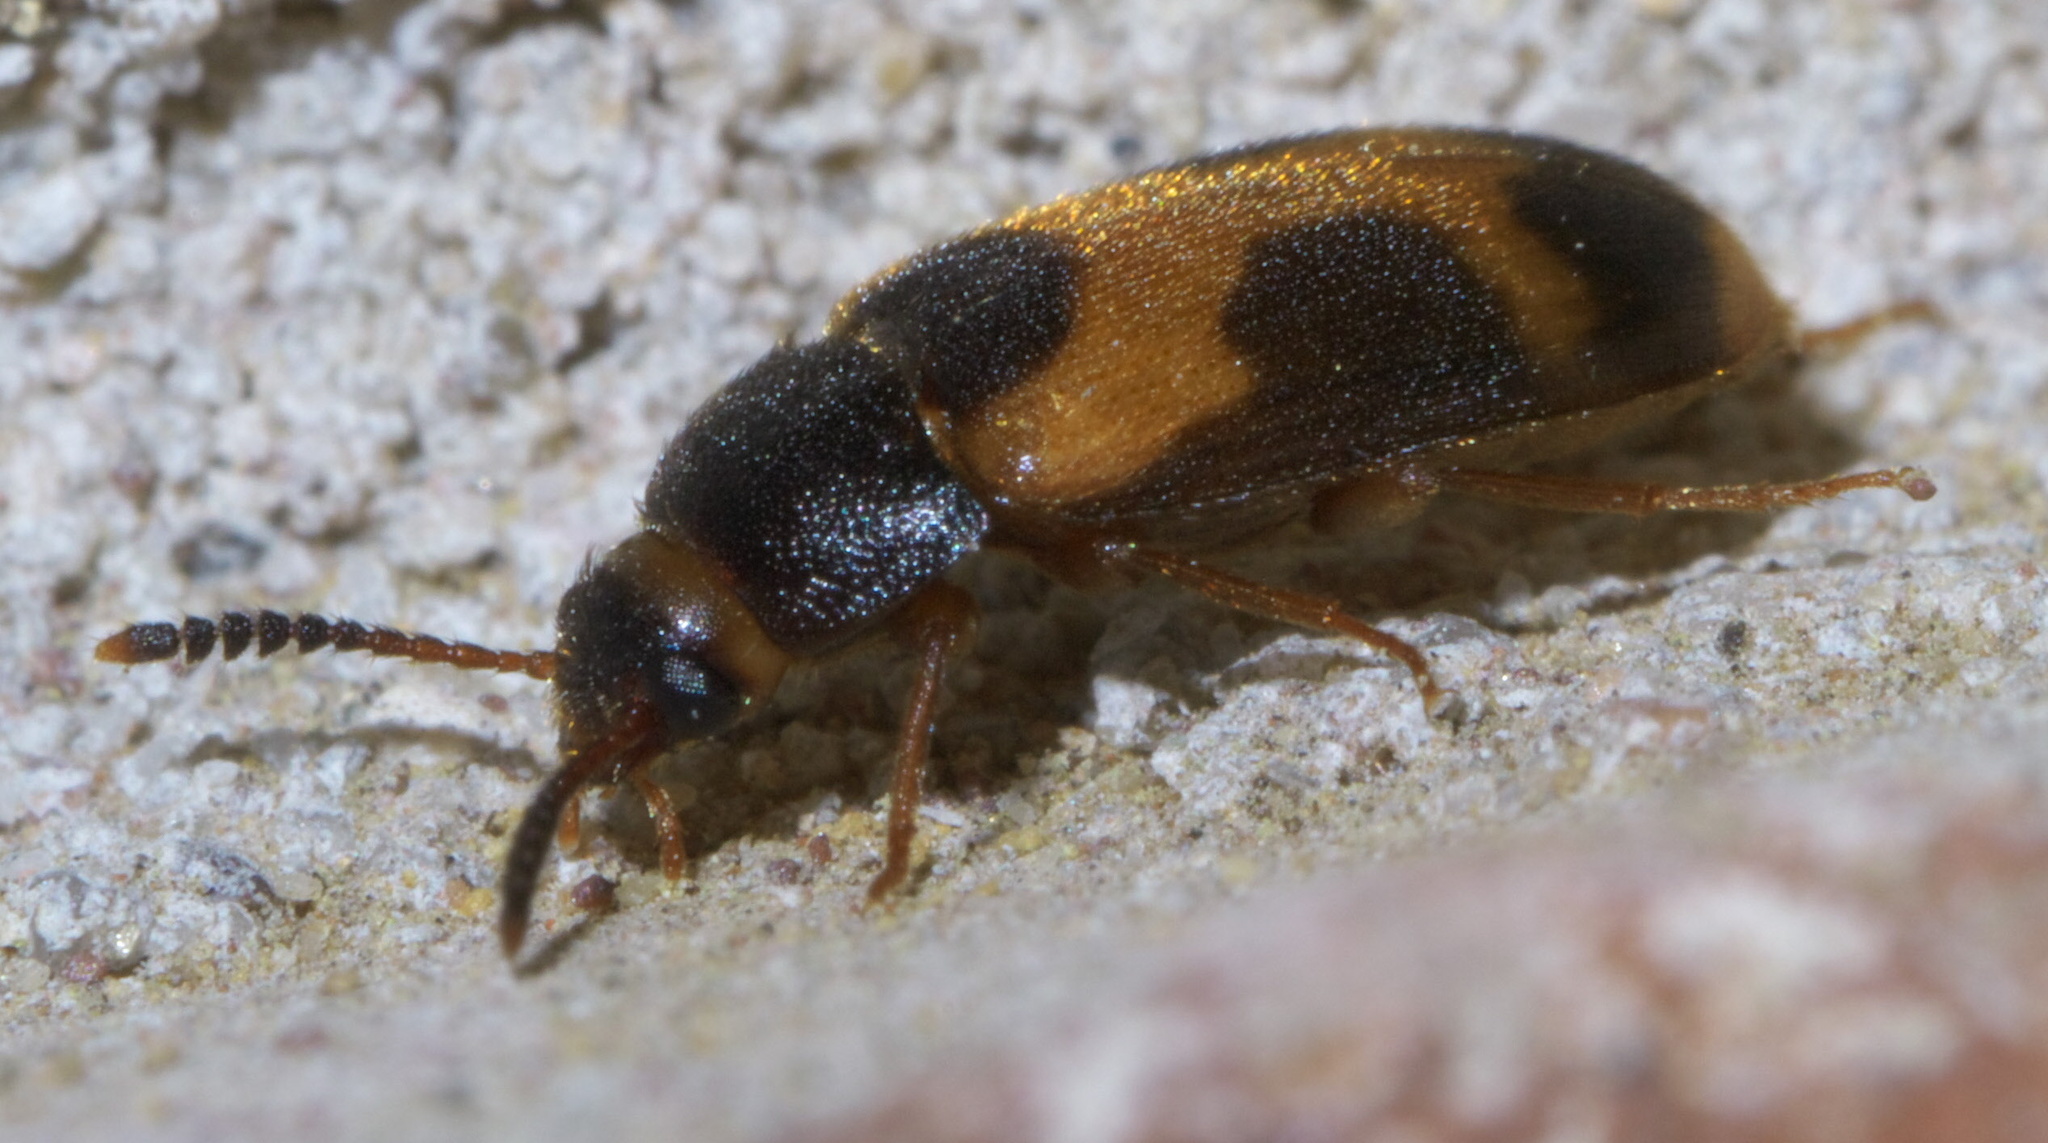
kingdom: Animalia
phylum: Arthropoda
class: Insecta
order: Coleoptera
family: Mycetophagidae
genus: Mycetophagus
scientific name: Mycetophagus punctatus
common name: Hairy fungus beetle
